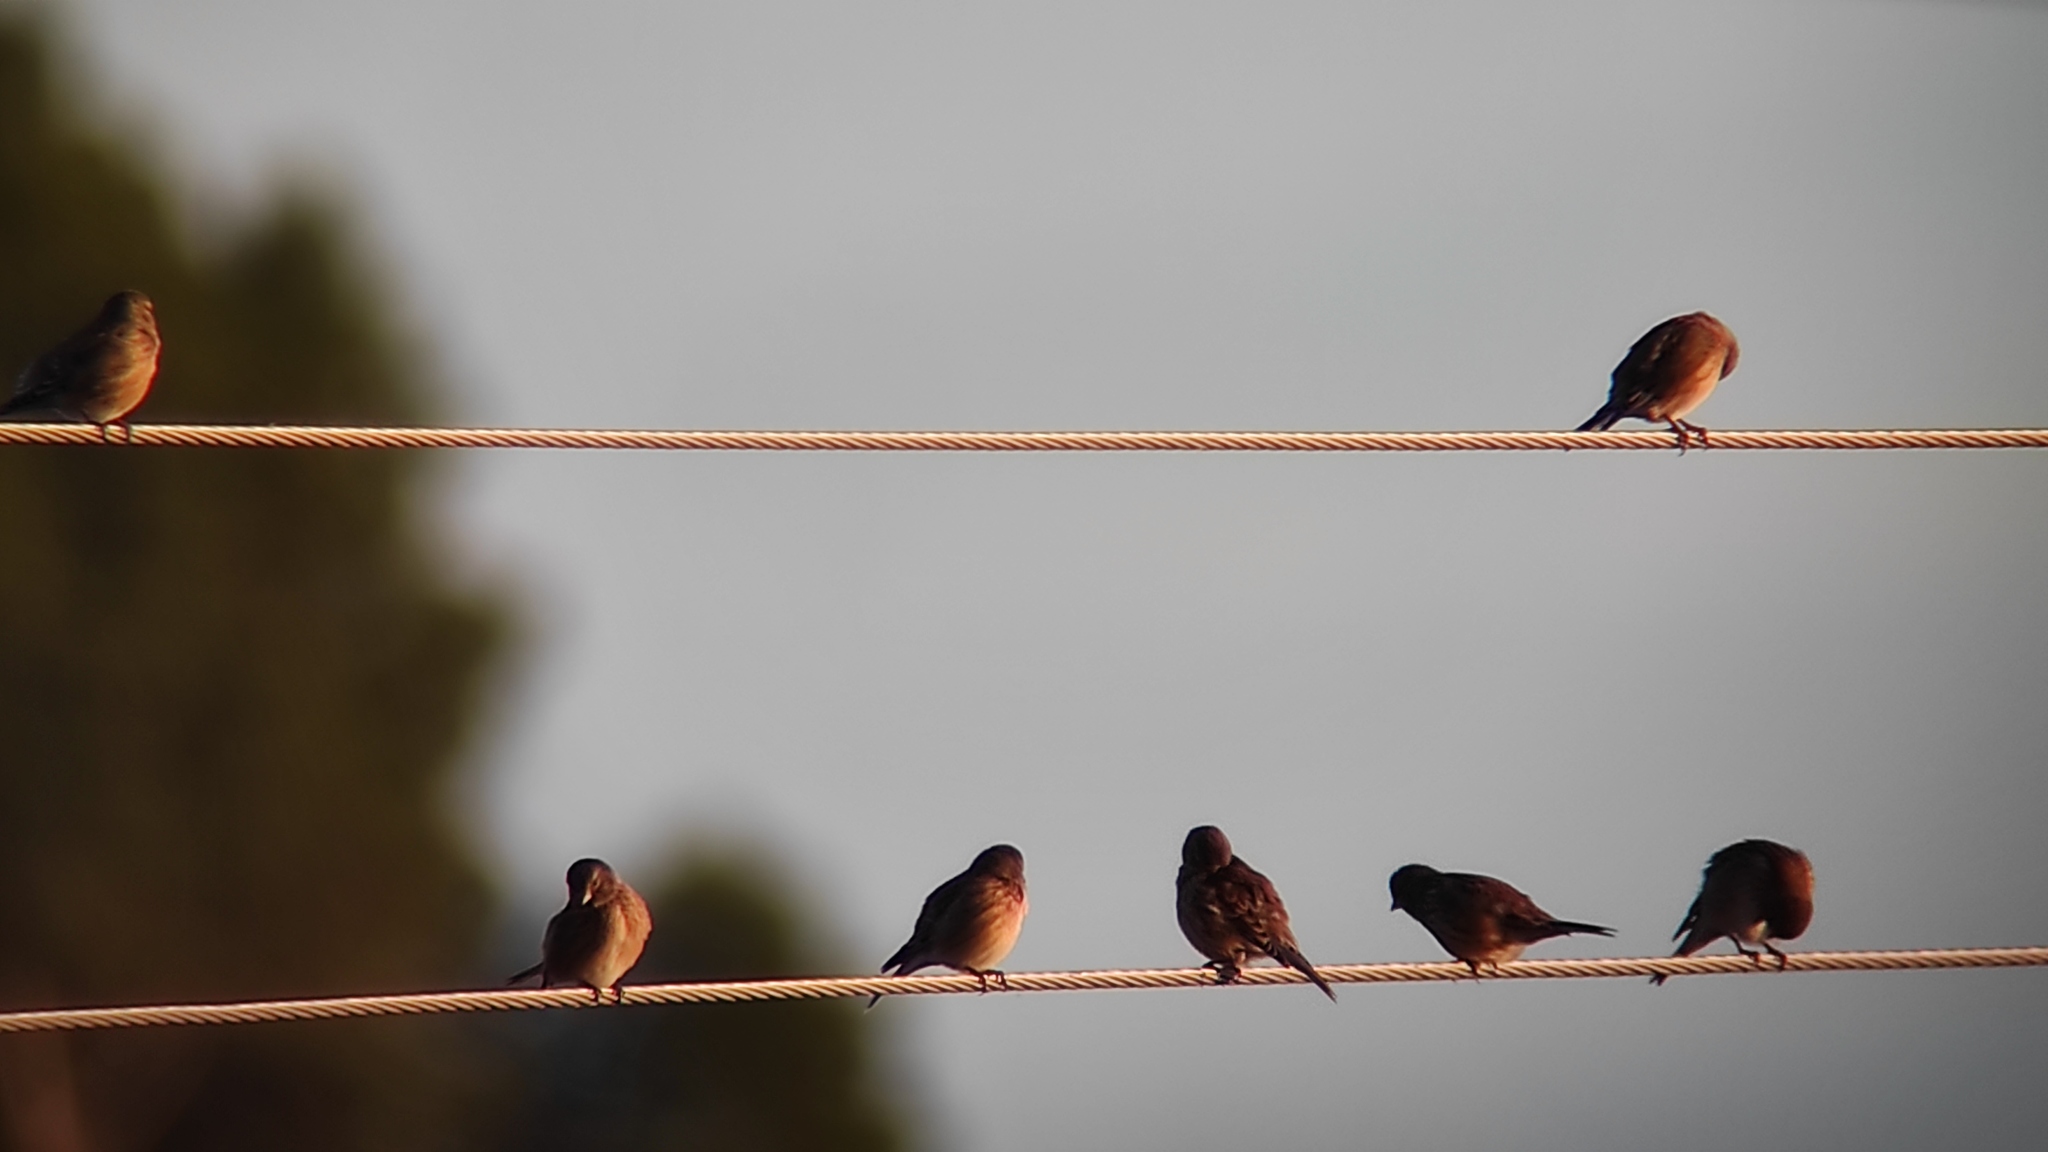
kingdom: Animalia
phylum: Chordata
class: Aves
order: Passeriformes
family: Fringillidae
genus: Linaria
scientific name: Linaria cannabina
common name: Common linnet
